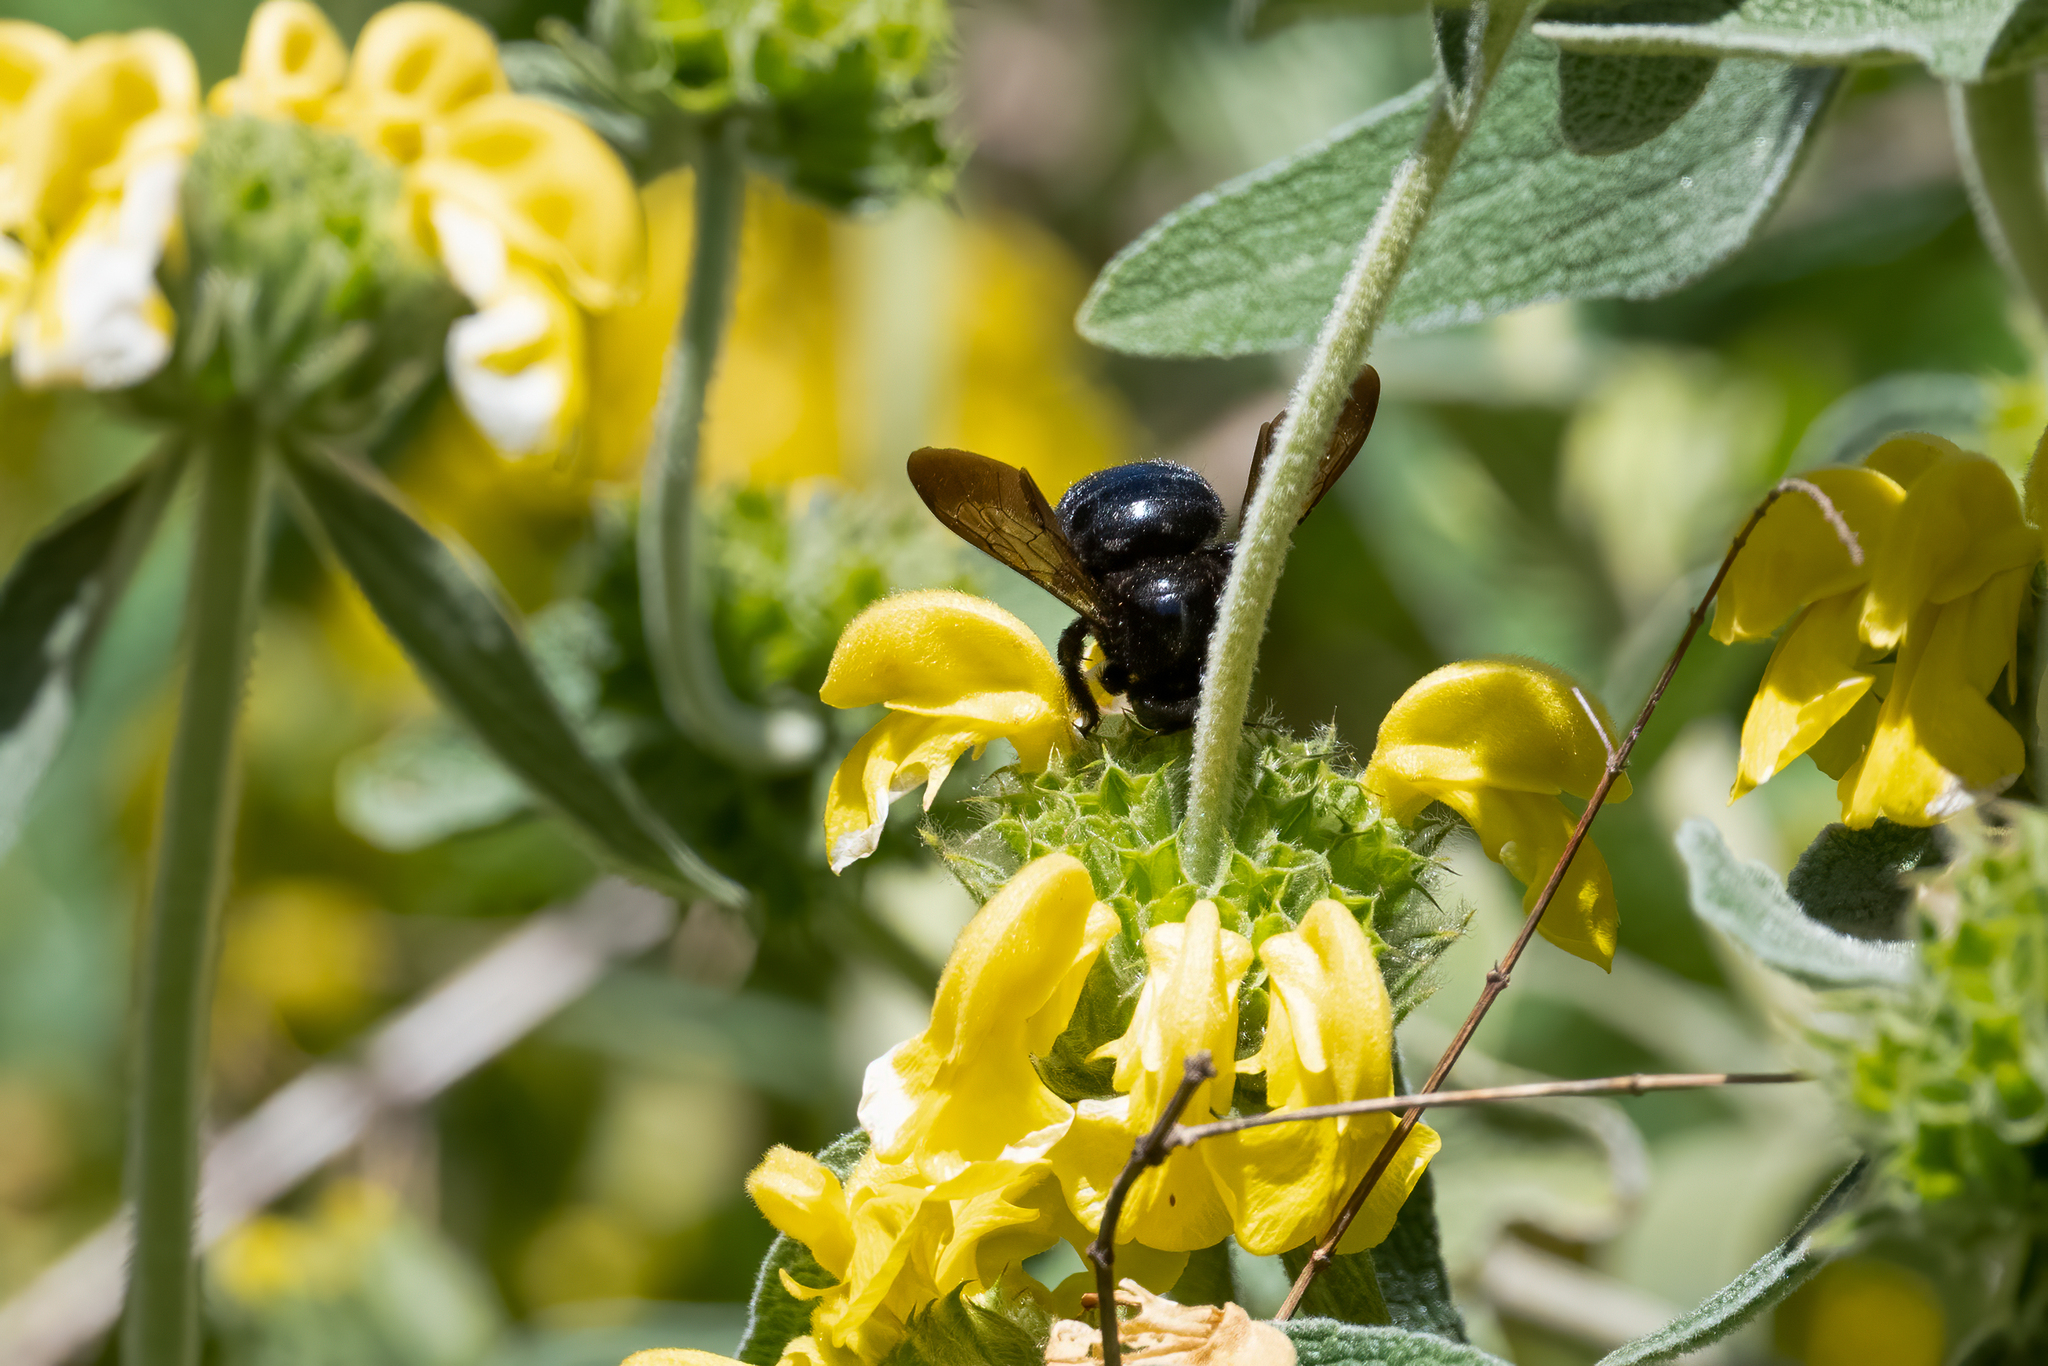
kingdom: Animalia
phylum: Arthropoda
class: Insecta
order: Hymenoptera
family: Apidae
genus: Xylocopa
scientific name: Xylocopa sonorina
